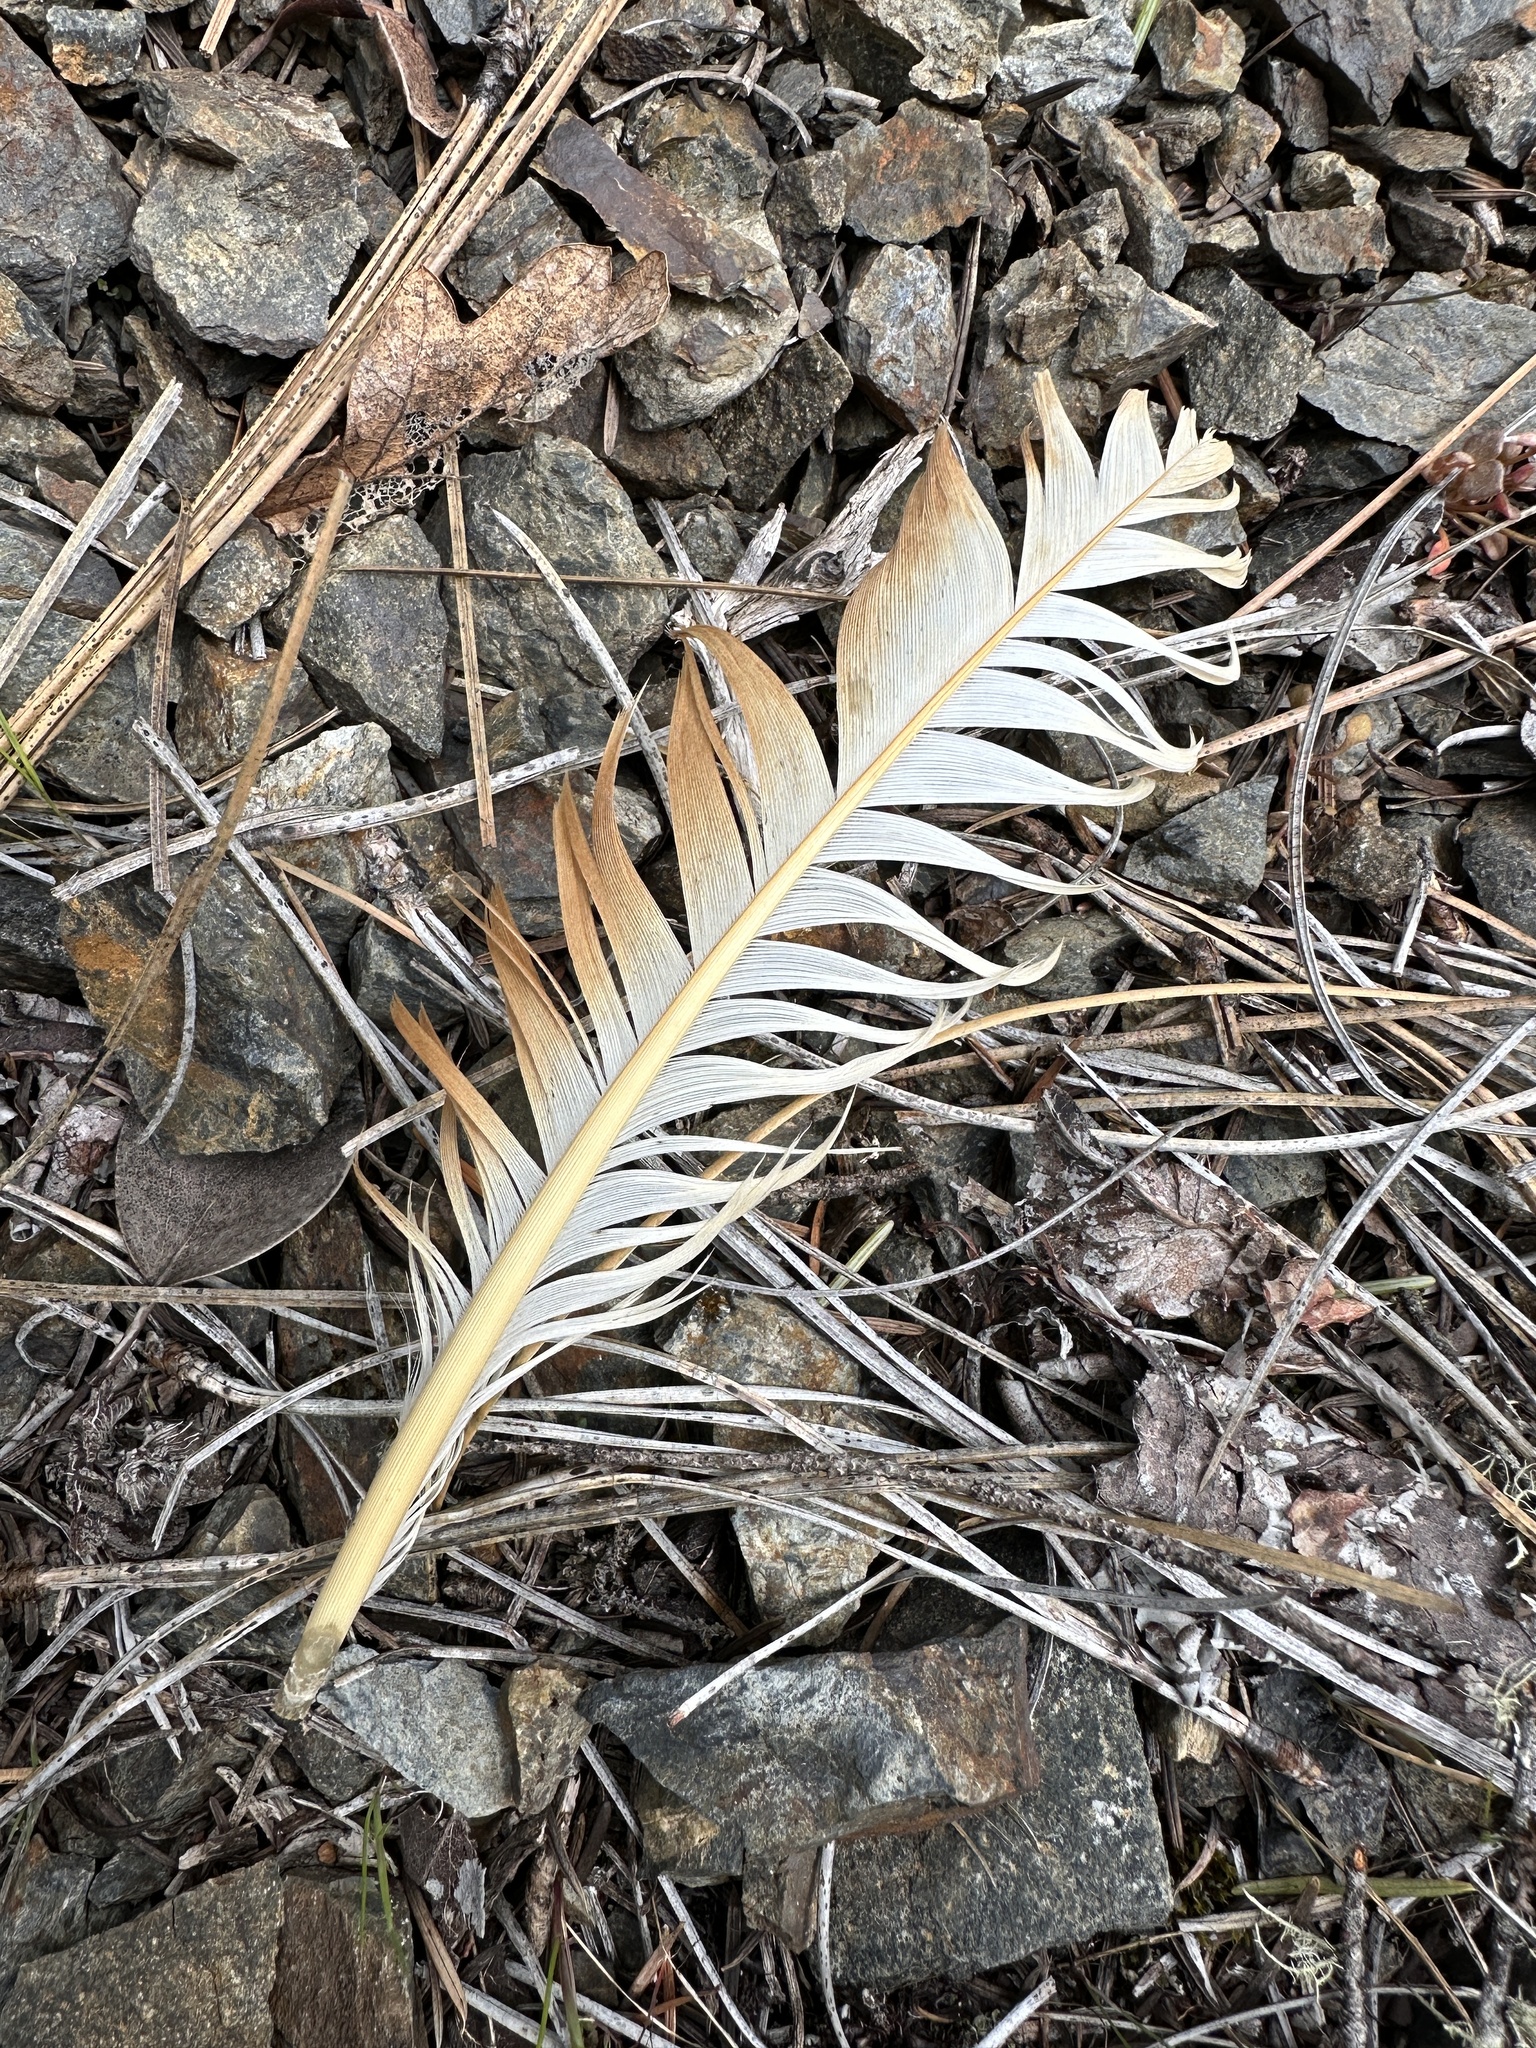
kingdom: Animalia
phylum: Chordata
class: Aves
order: Galliformes
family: Phasianidae
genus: Gallus
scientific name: Gallus gallus
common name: Red junglefowl
